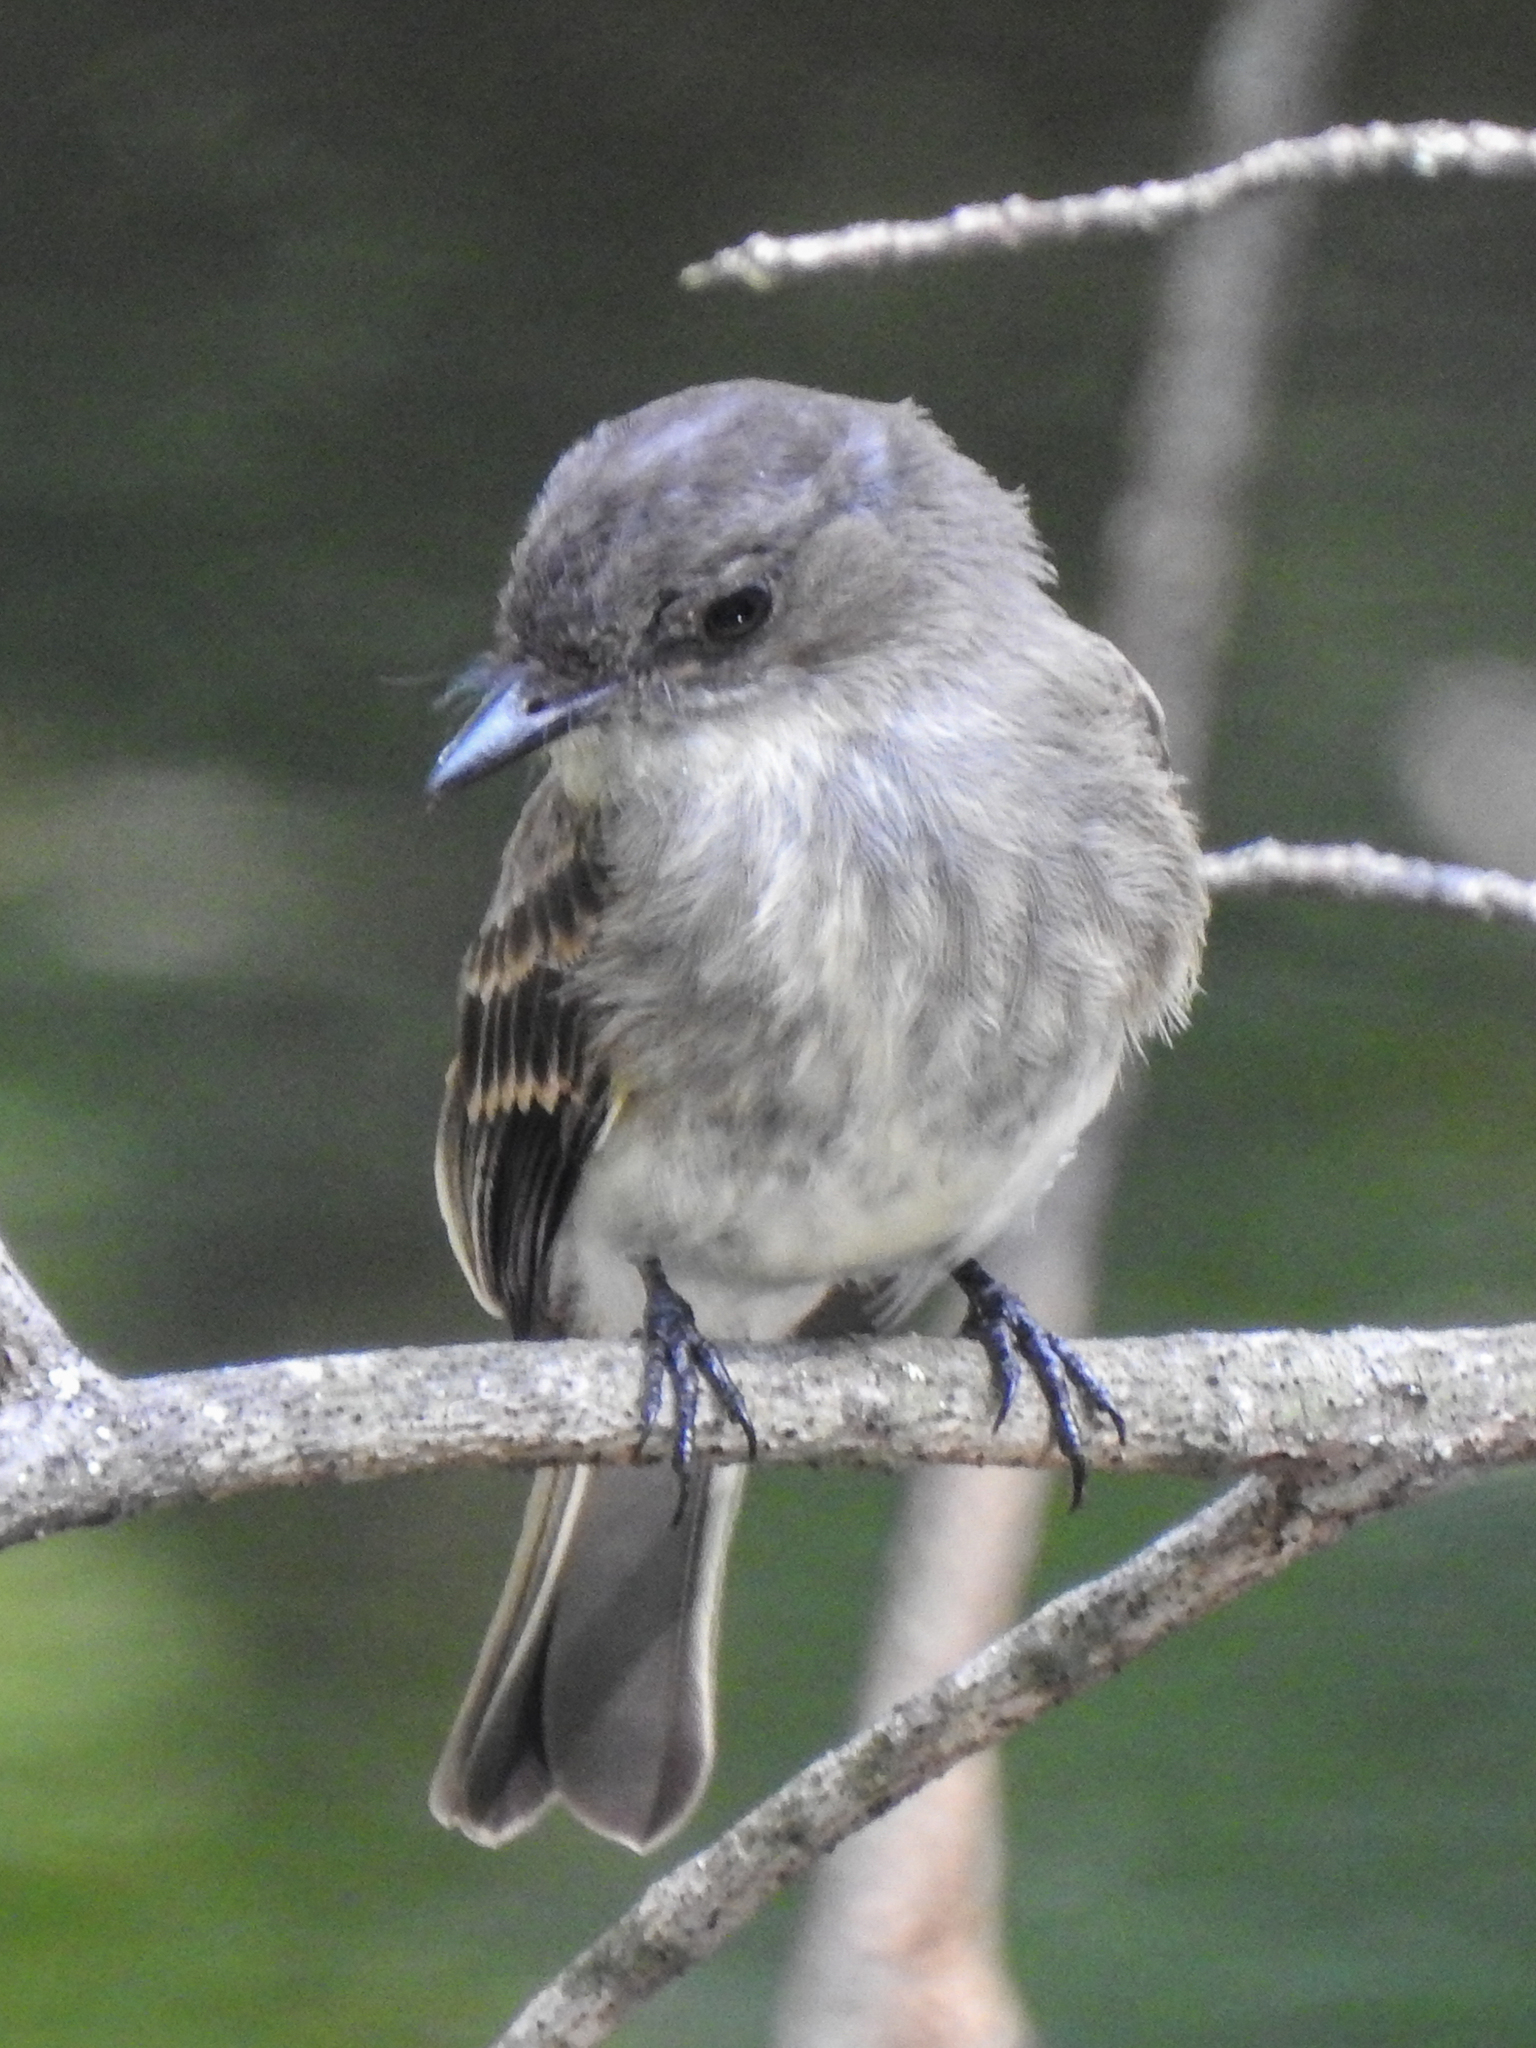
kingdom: Animalia
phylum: Chordata
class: Aves
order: Passeriformes
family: Tyrannidae
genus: Sayornis
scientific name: Sayornis phoebe
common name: Eastern phoebe
